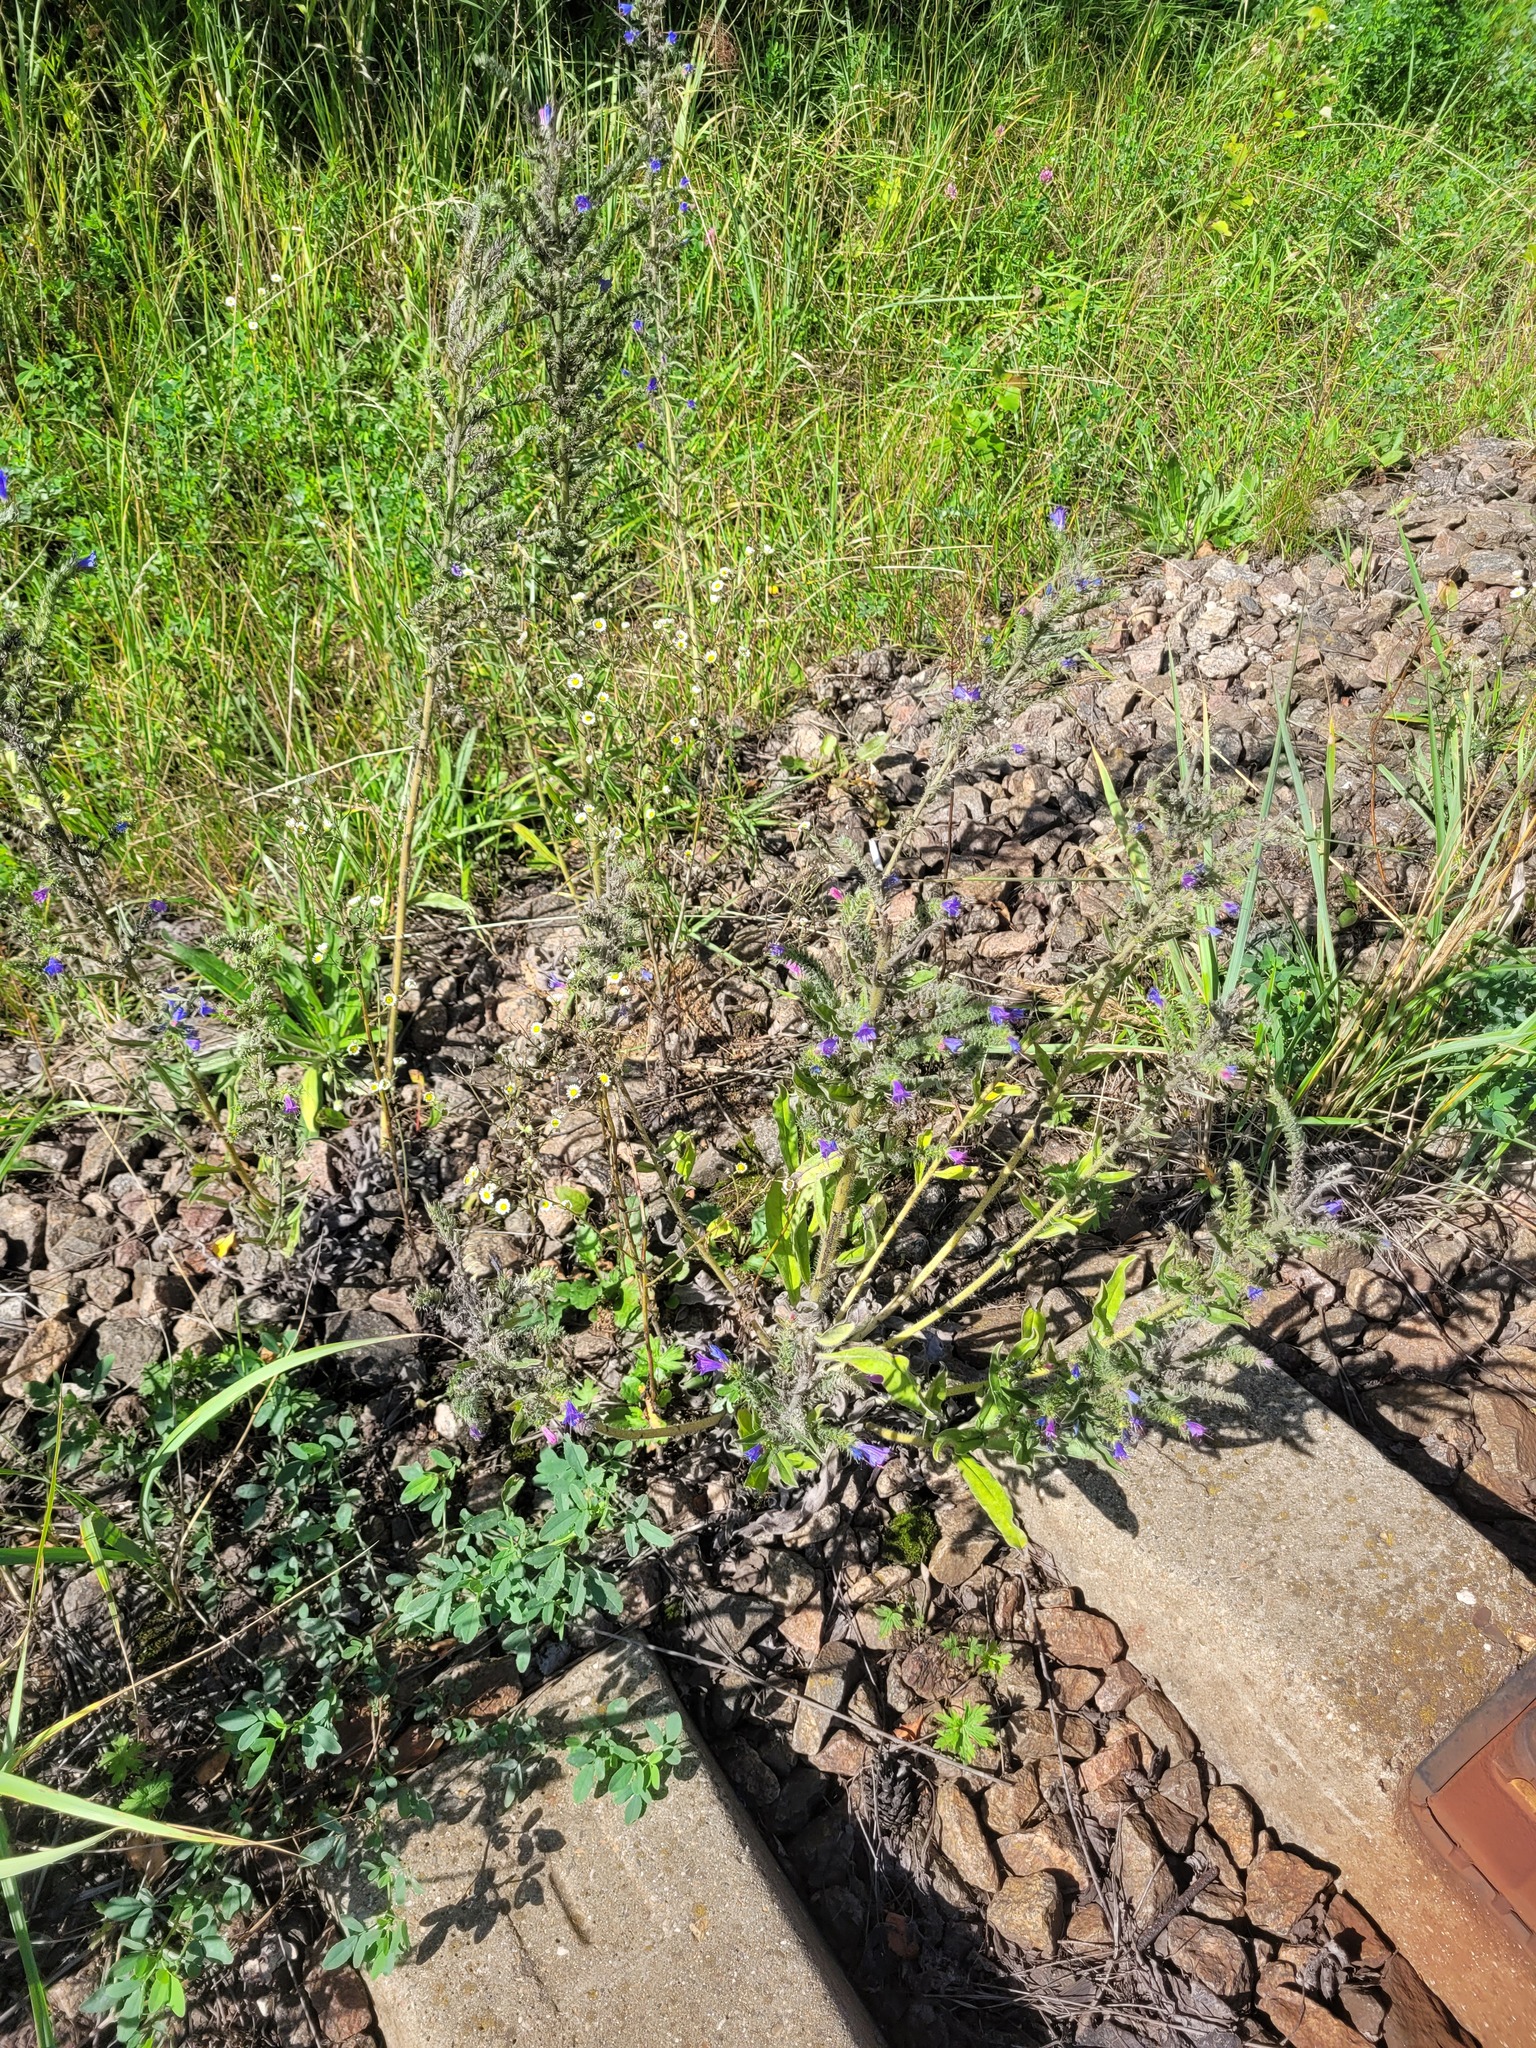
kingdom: Plantae
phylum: Tracheophyta
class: Magnoliopsida
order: Boraginales
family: Boraginaceae
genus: Echium
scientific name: Echium vulgare
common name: Common viper's bugloss
